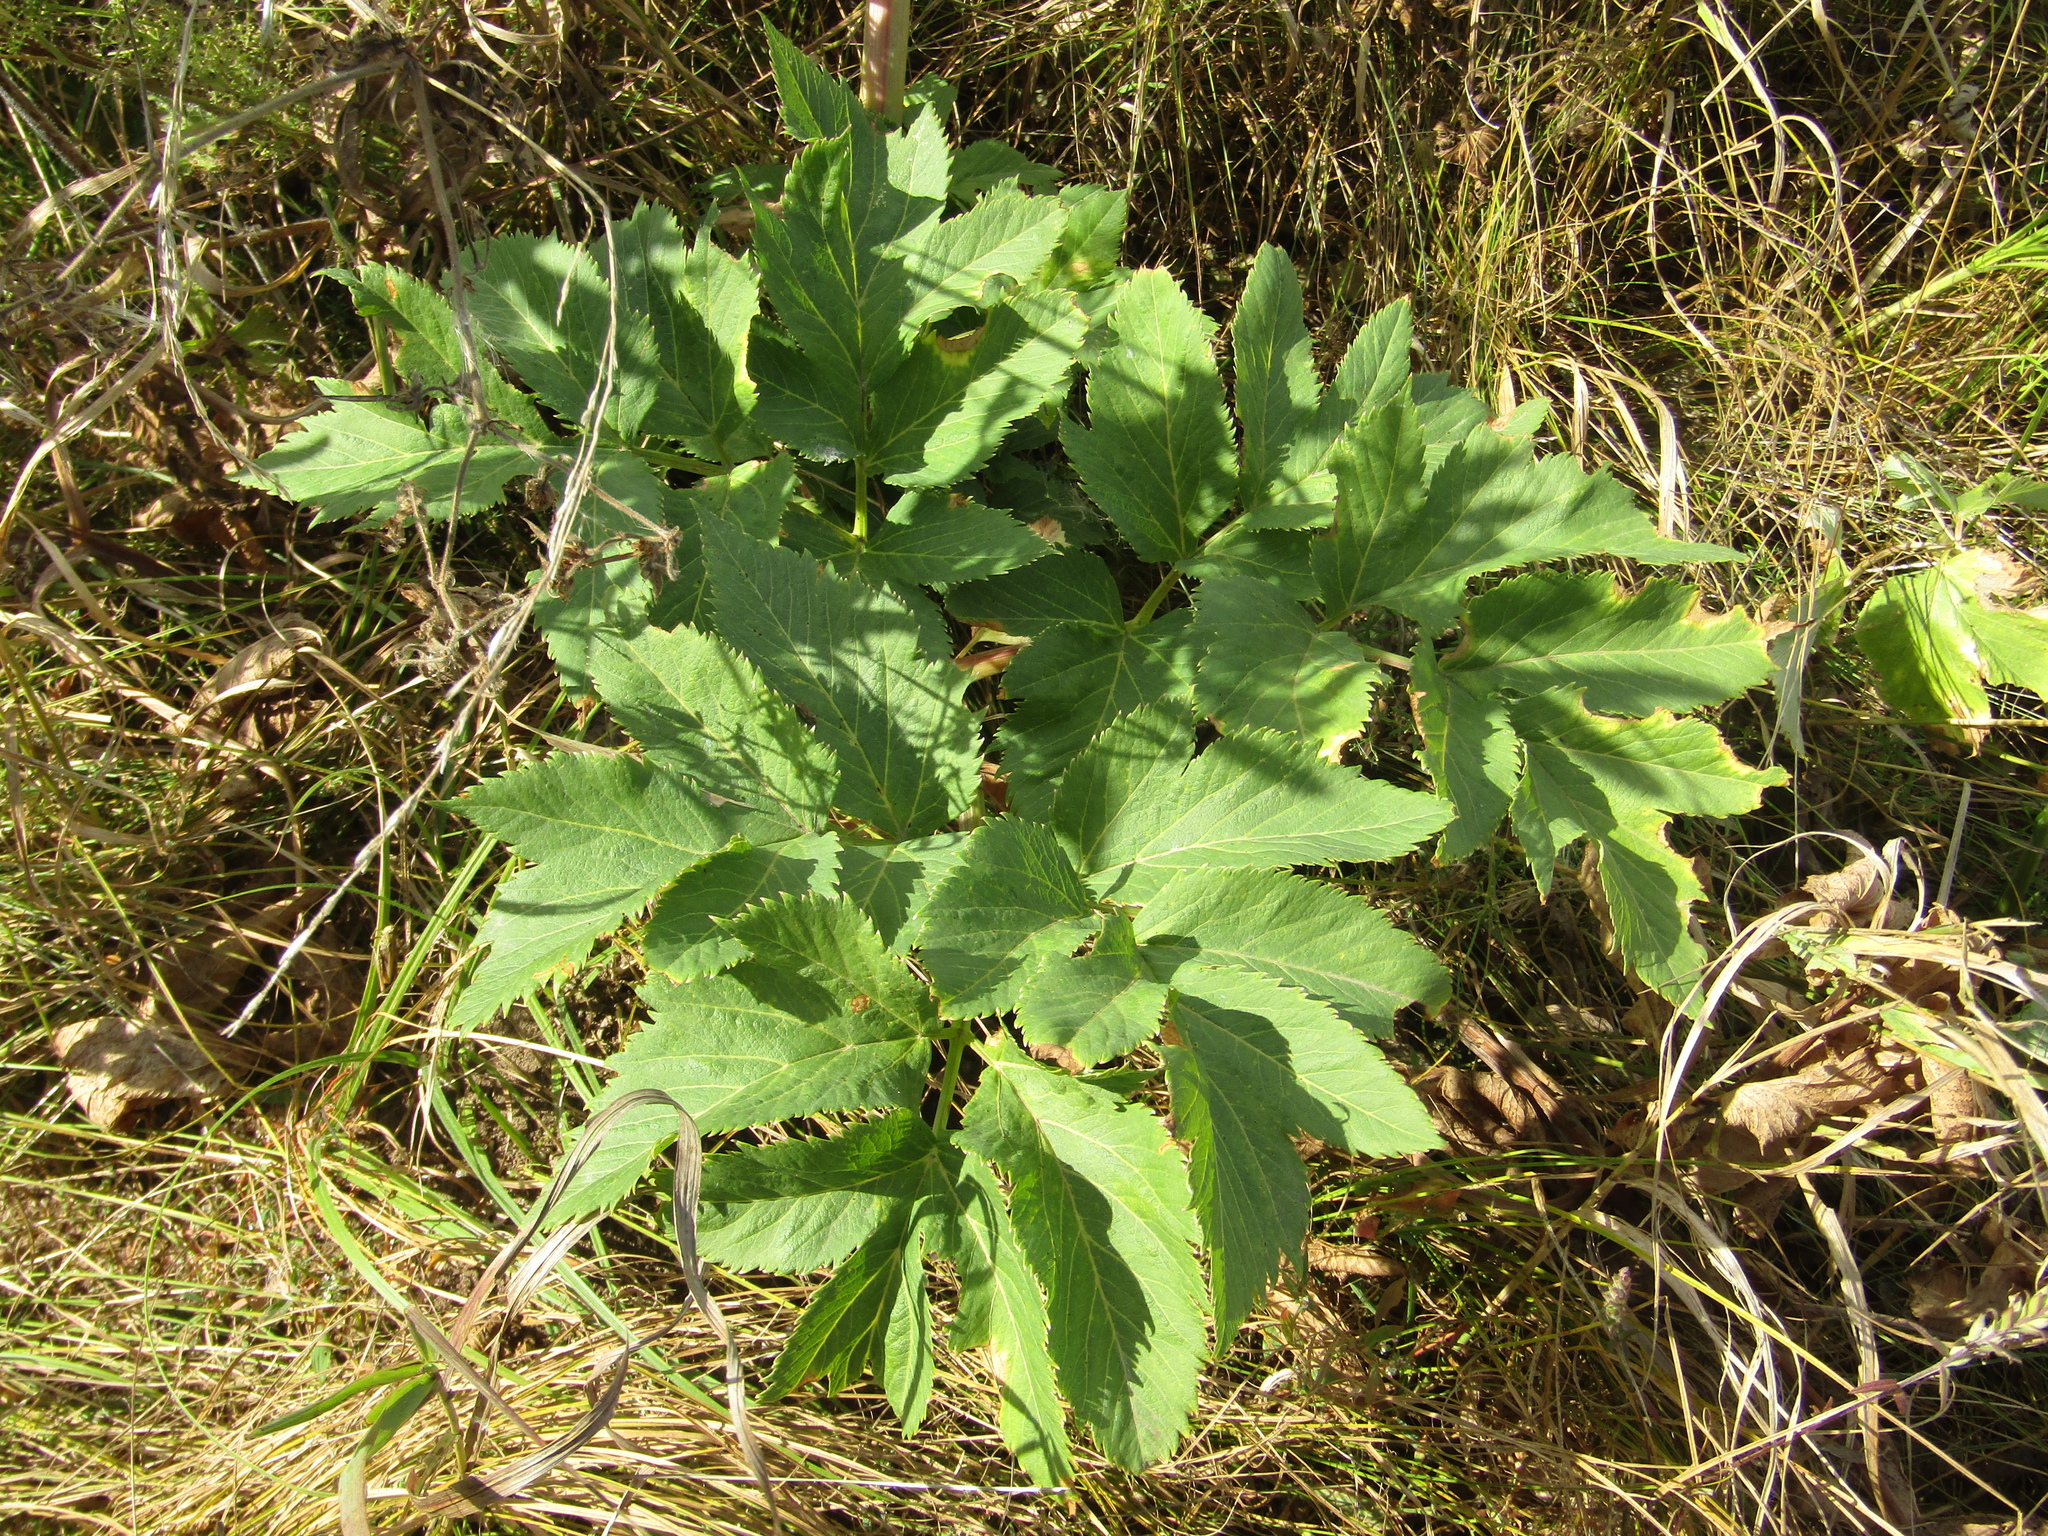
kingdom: Plantae
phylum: Tracheophyta
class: Magnoliopsida
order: Apiales
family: Apiaceae
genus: Angelica
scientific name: Angelica archangelica
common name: Garden angelica
